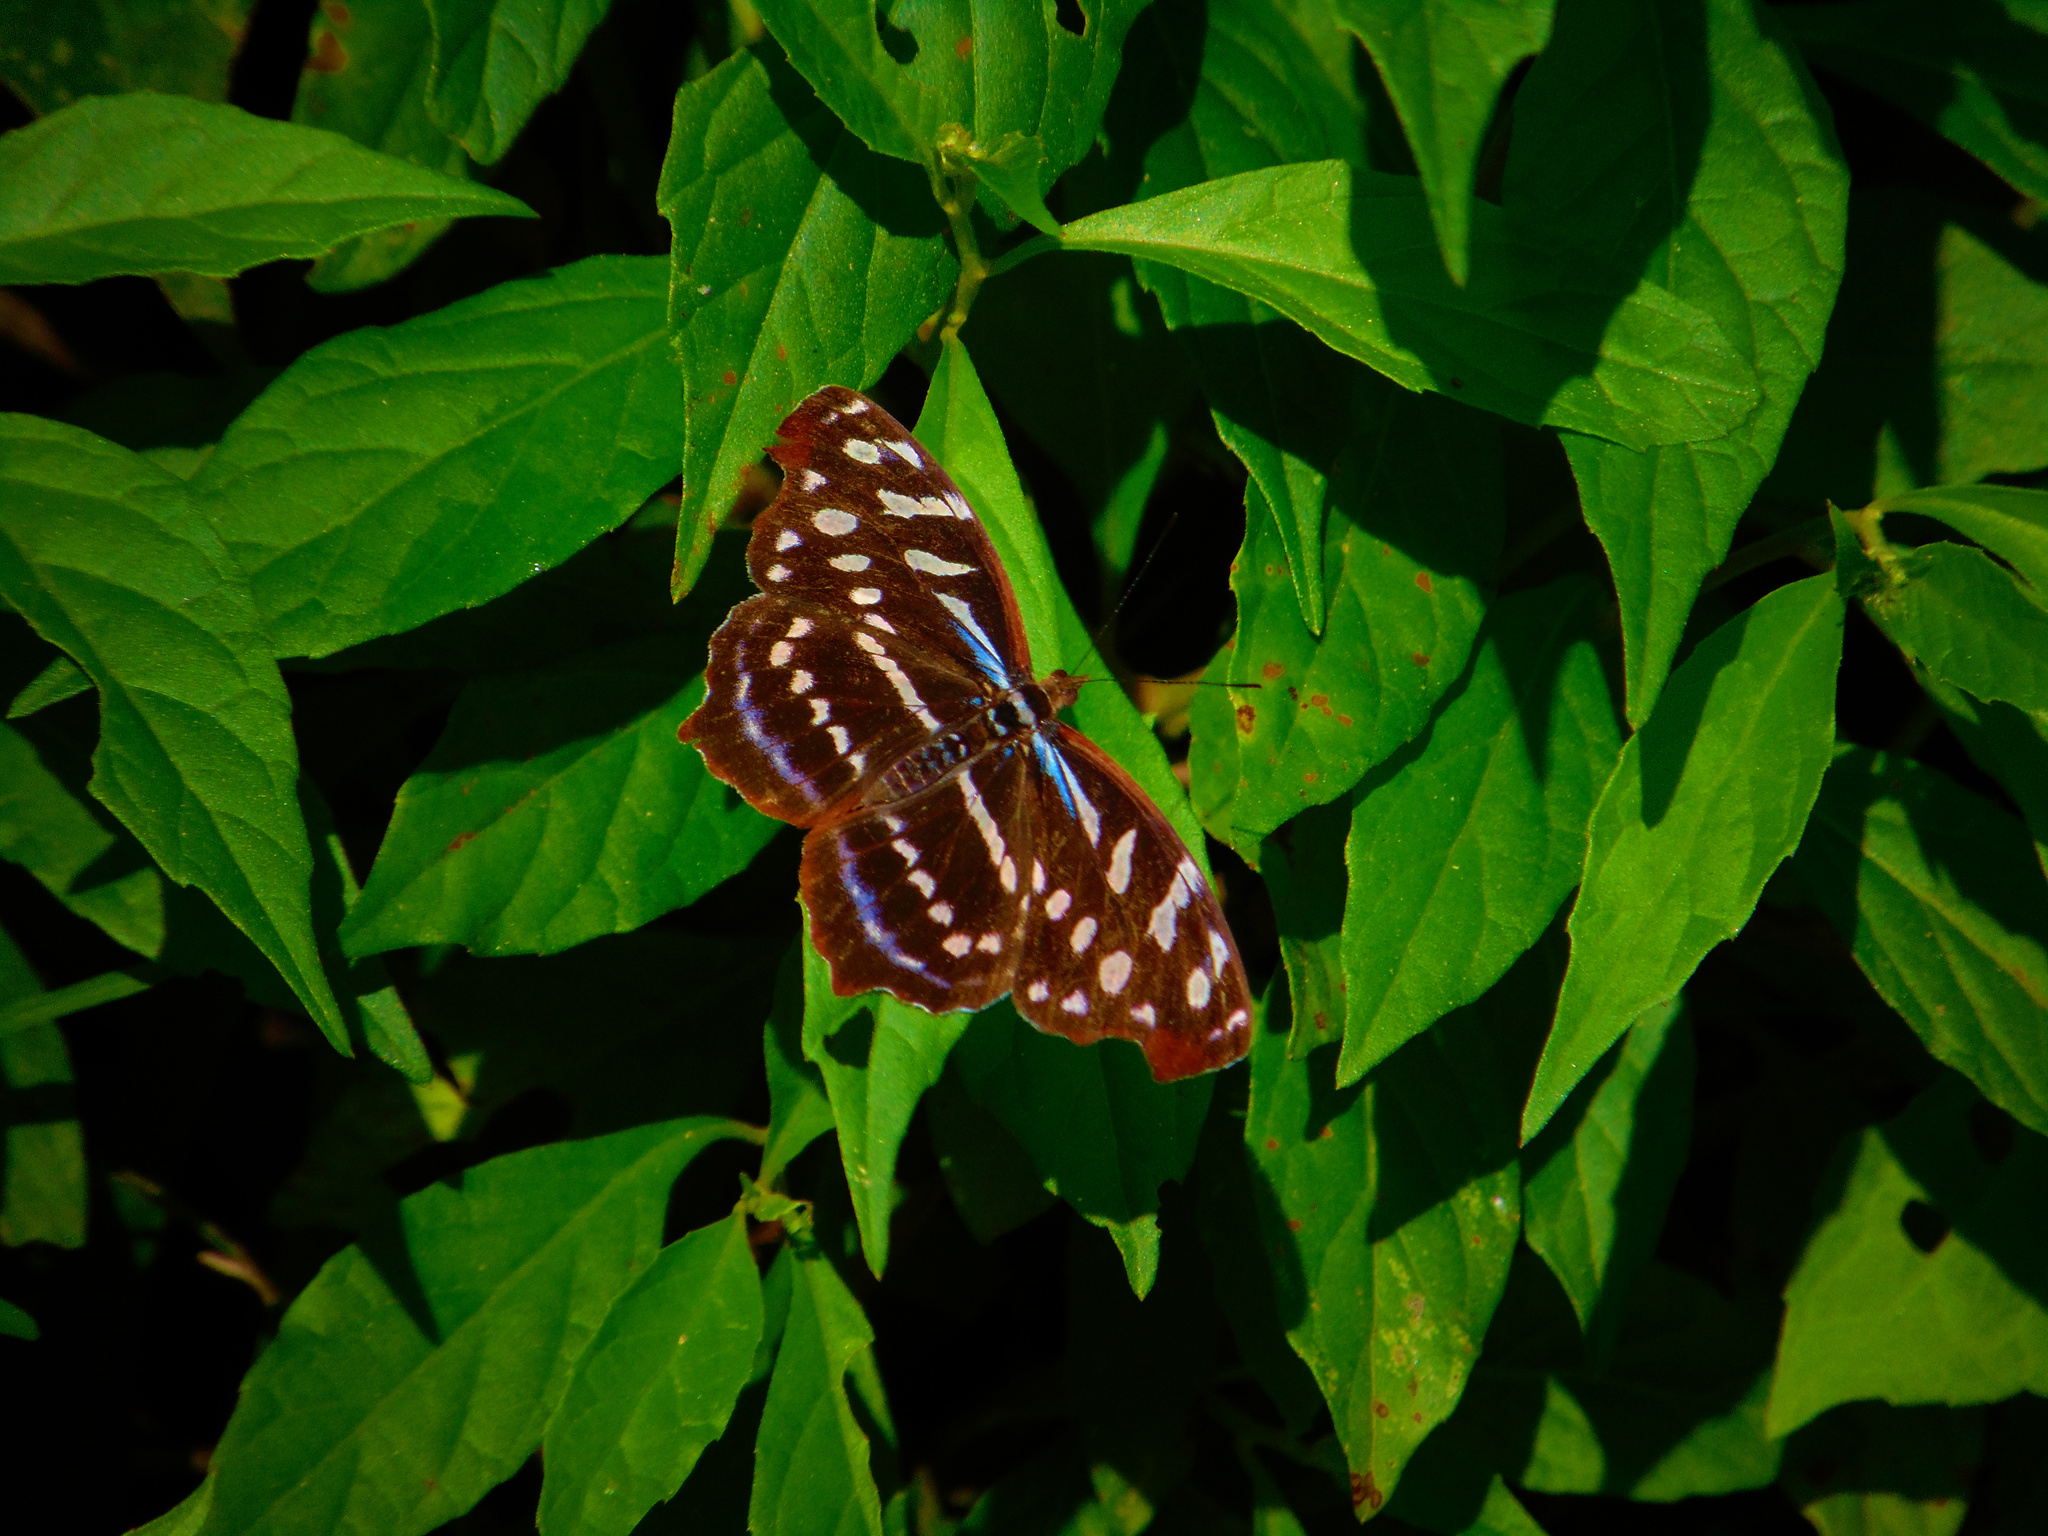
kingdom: Animalia
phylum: Arthropoda
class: Insecta
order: Lepidoptera
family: Nymphalidae
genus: Myscelia
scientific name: Myscelia orsis
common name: Orsis bluewing
